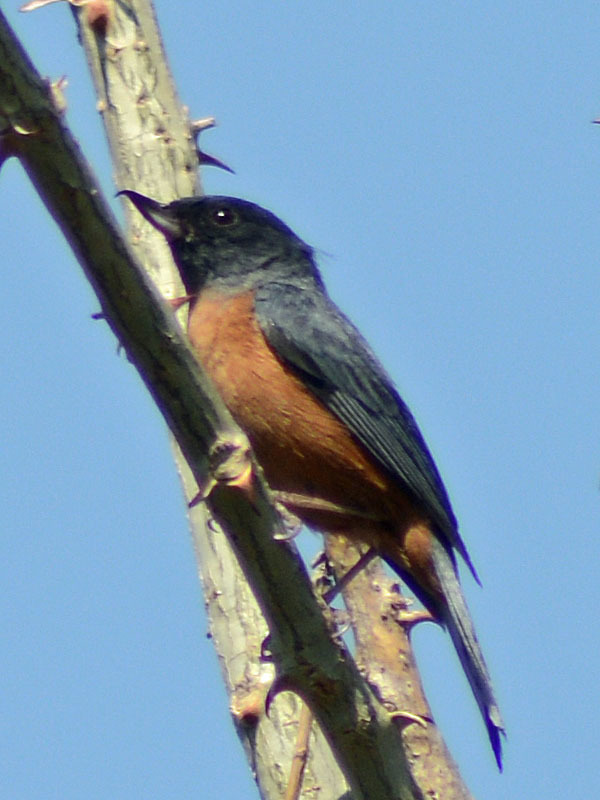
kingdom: Animalia
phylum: Chordata
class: Aves
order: Passeriformes
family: Thraupidae
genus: Diglossa
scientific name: Diglossa baritula
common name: Cinnamon-bellied flowerpiercer
